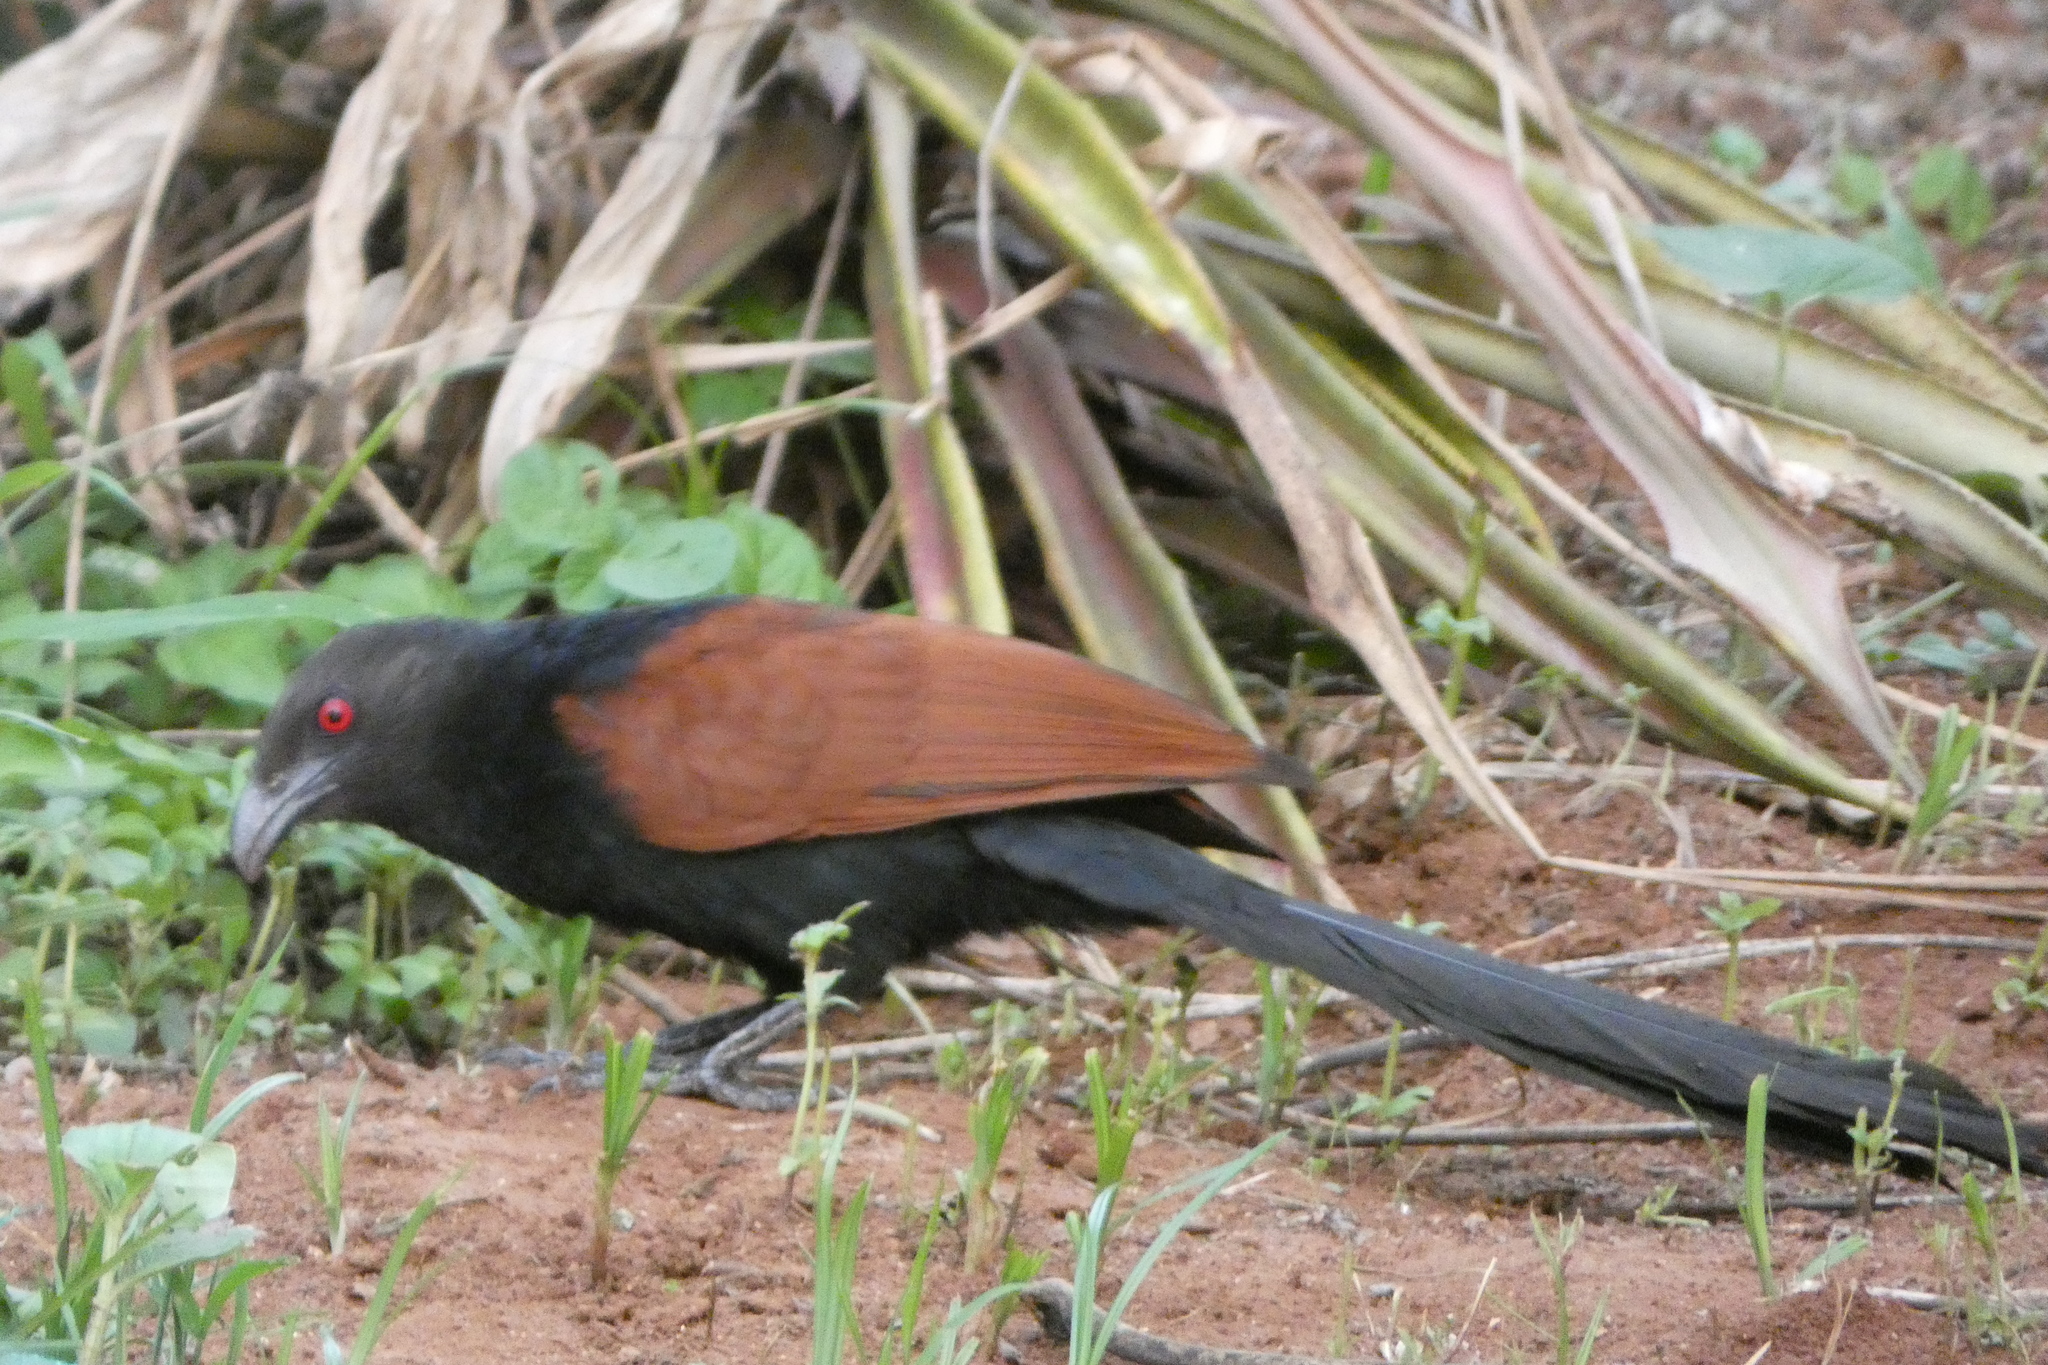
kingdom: Animalia
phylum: Chordata
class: Aves
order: Cuculiformes
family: Cuculidae
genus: Centropus
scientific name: Centropus sinensis
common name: Greater coucal
